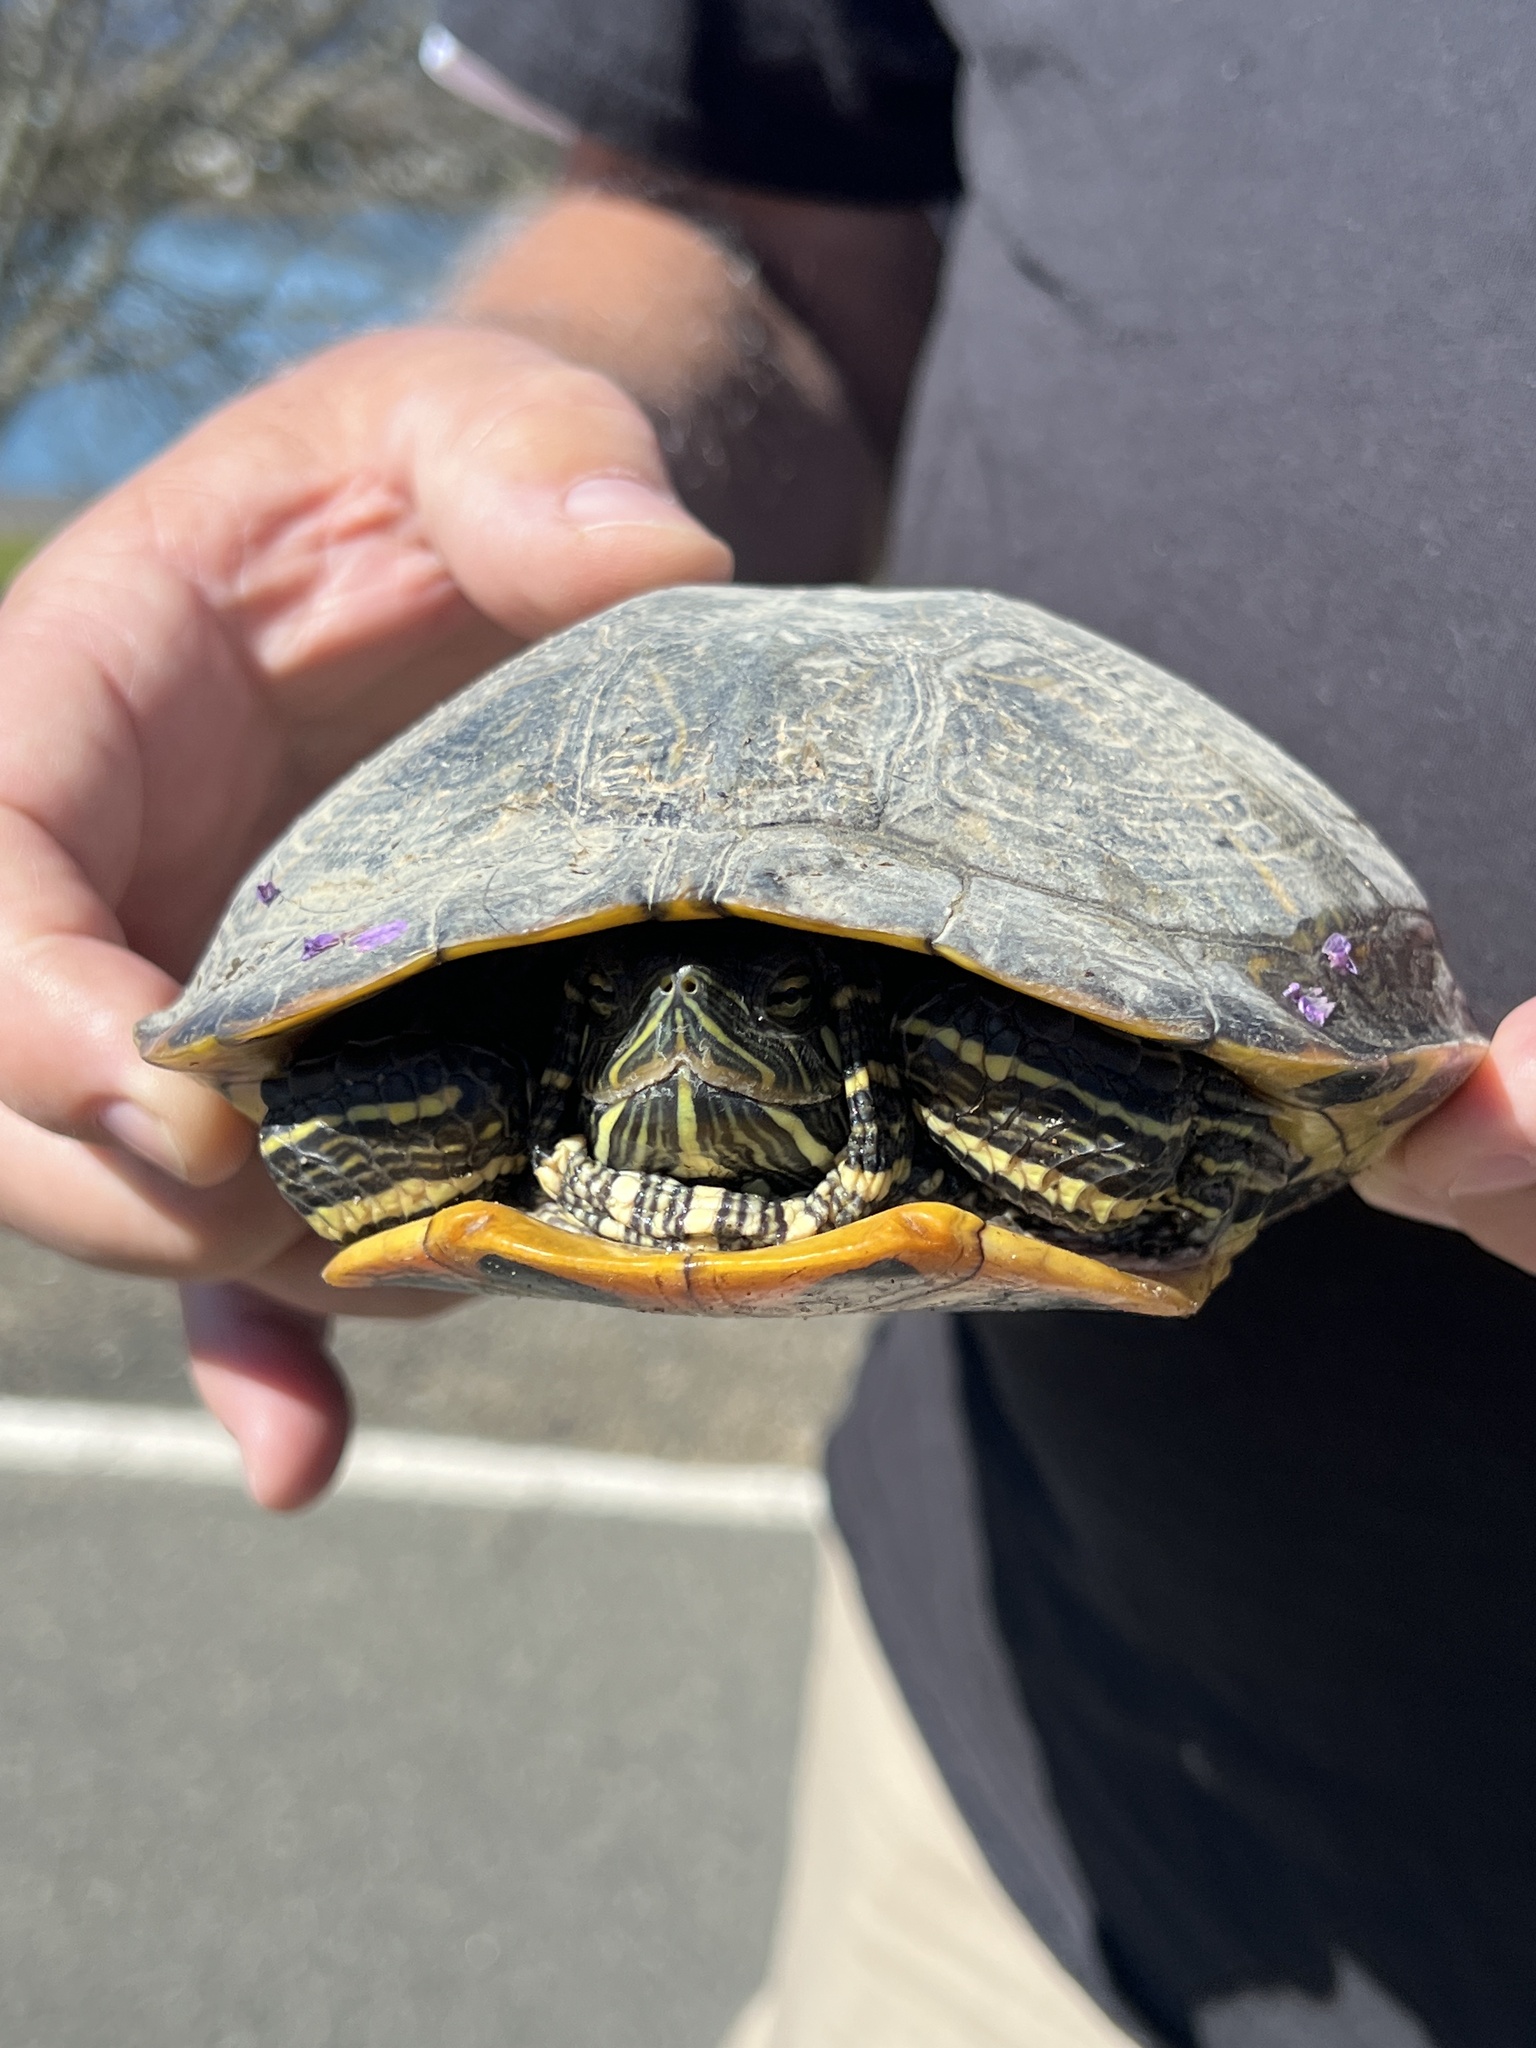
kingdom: Animalia
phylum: Chordata
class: Testudines
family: Emydidae
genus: Trachemys
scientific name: Trachemys scripta
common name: Slider
